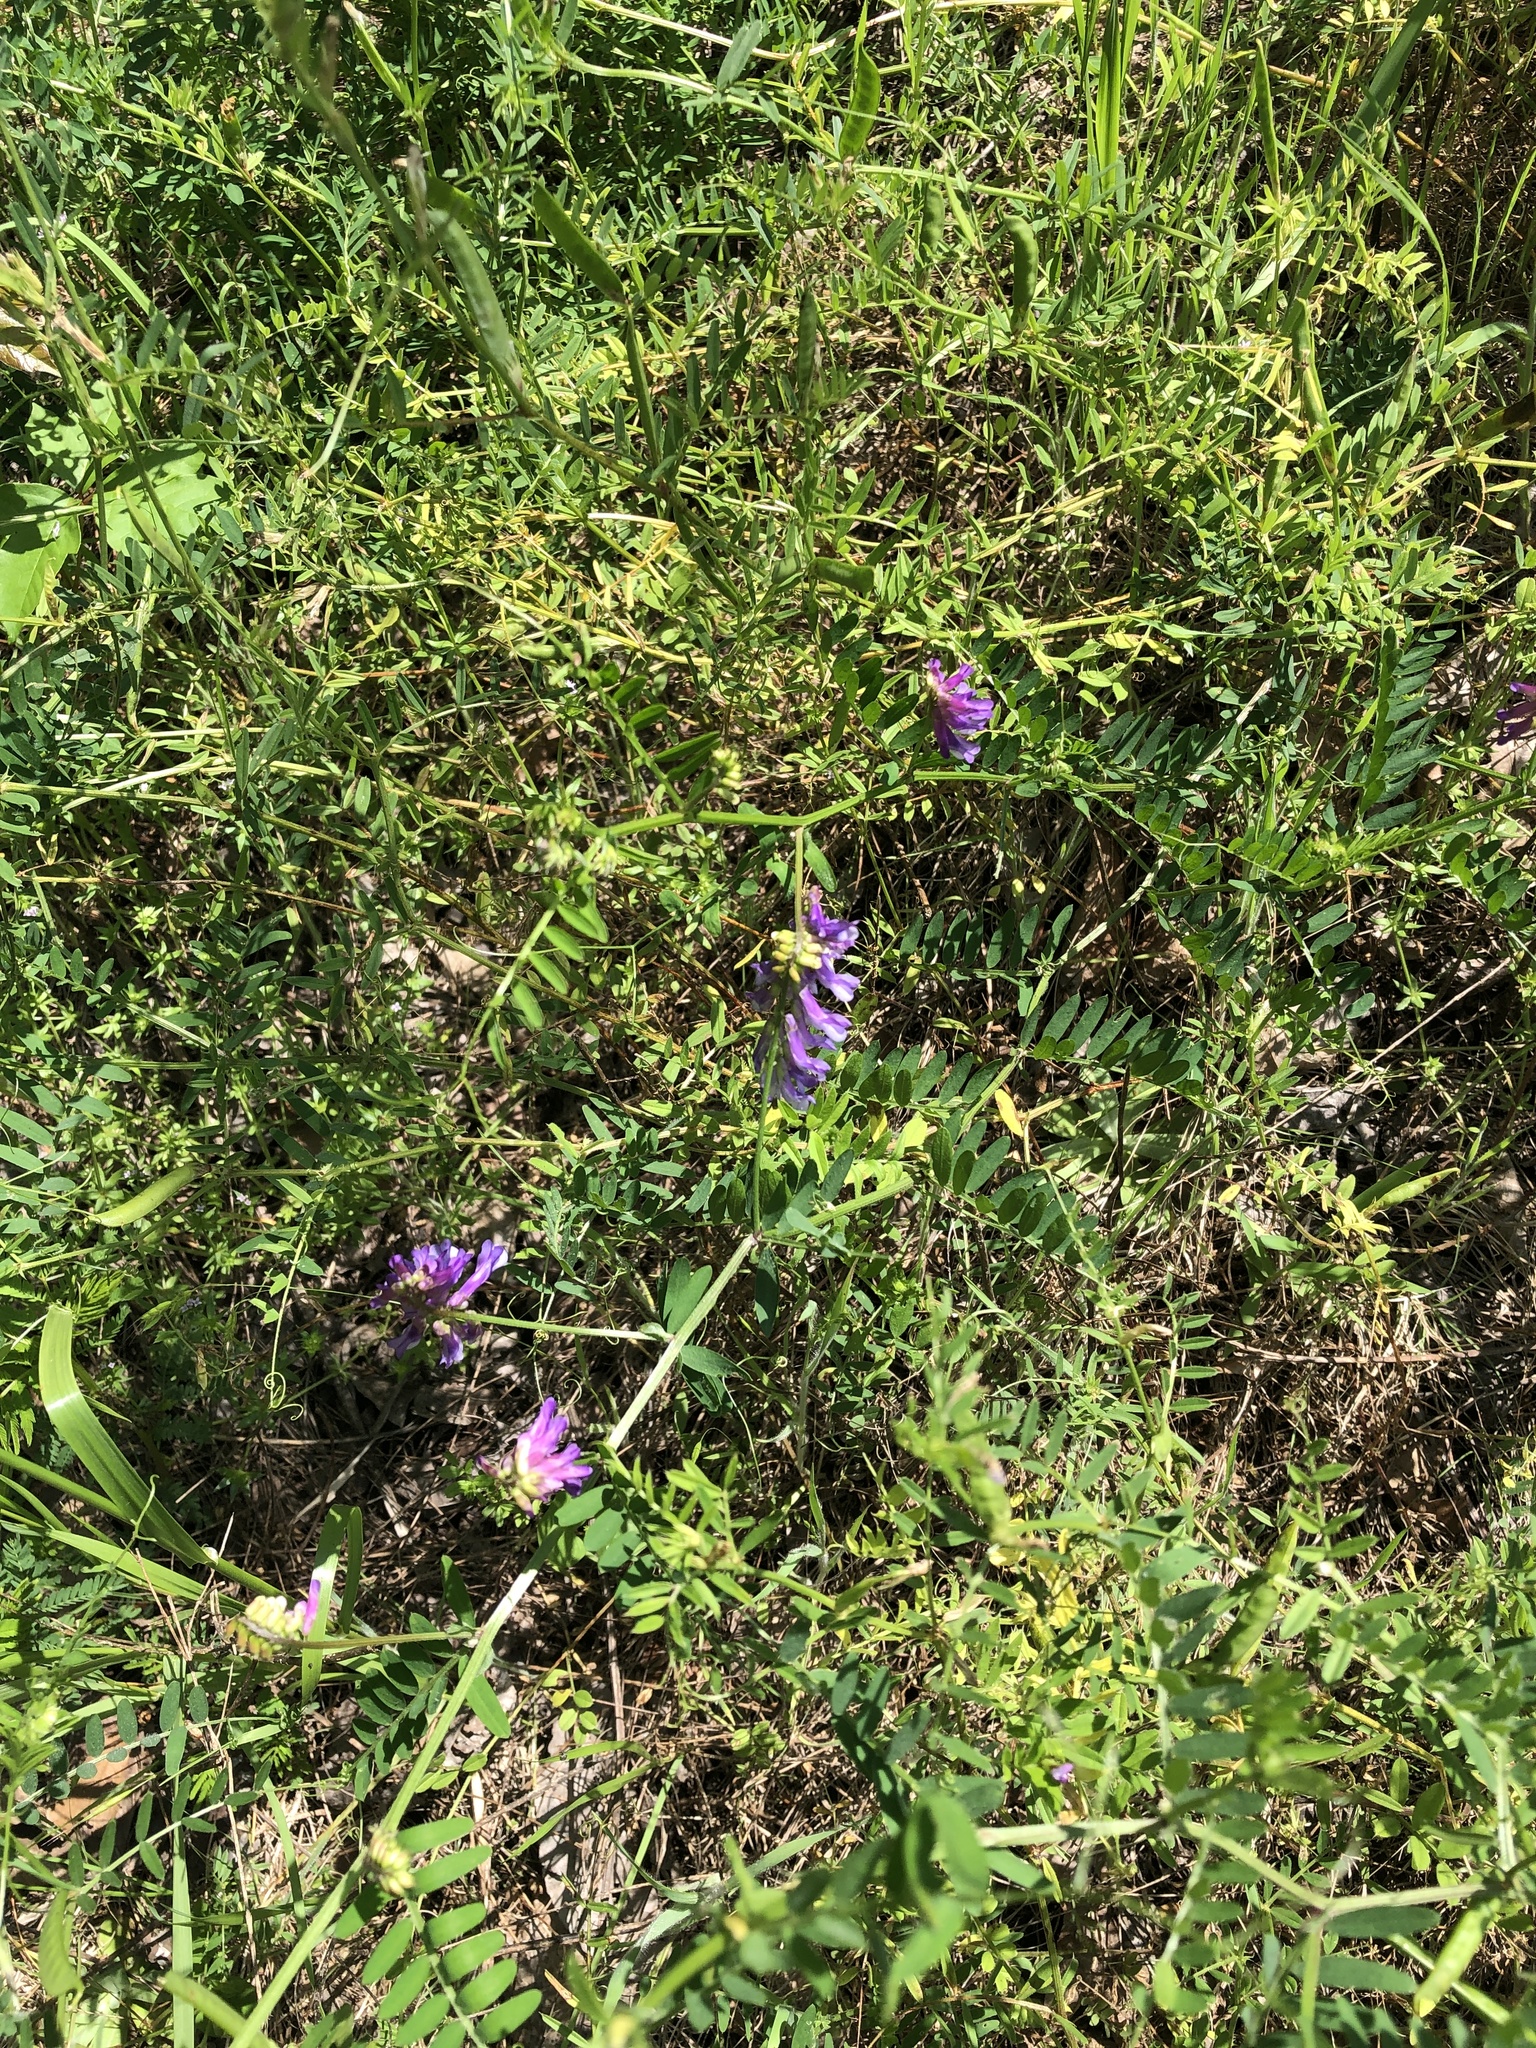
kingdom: Plantae
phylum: Tracheophyta
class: Magnoliopsida
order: Fabales
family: Fabaceae
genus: Vicia
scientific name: Vicia villosa
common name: Fodder vetch
